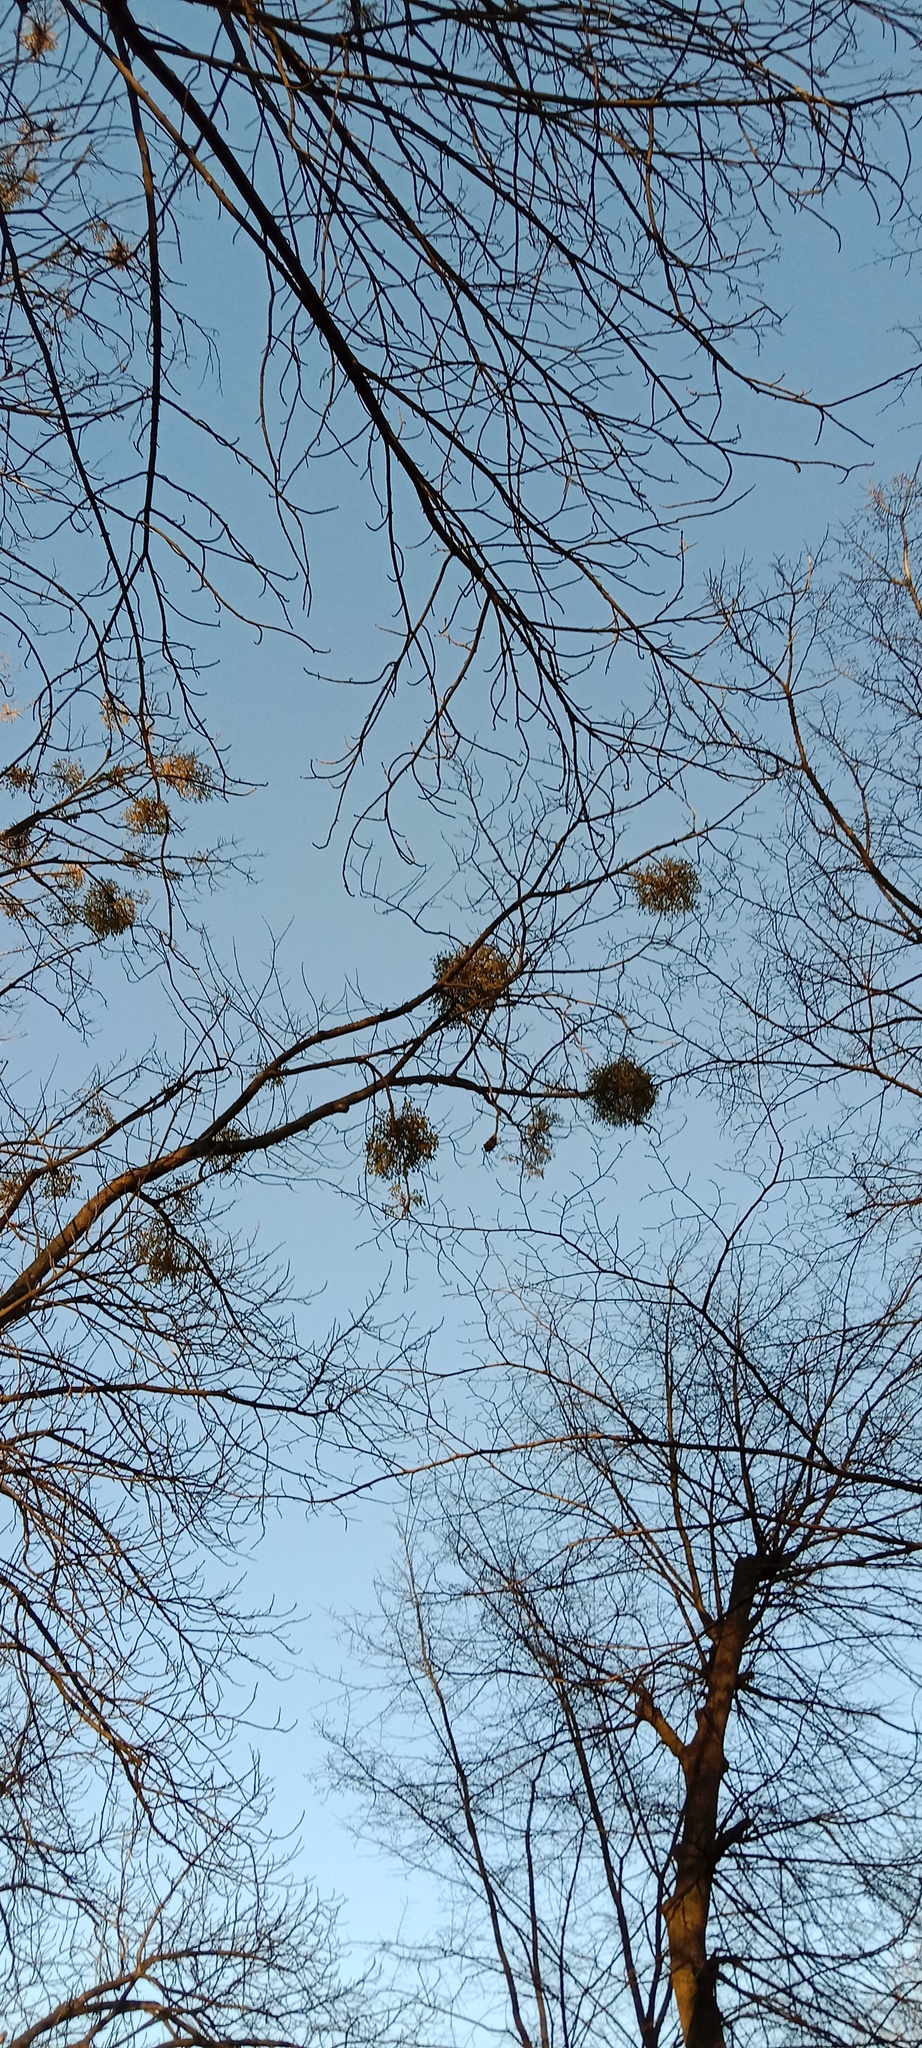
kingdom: Plantae
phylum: Tracheophyta
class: Magnoliopsida
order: Santalales
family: Viscaceae
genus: Viscum
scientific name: Viscum album
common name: Mistletoe
